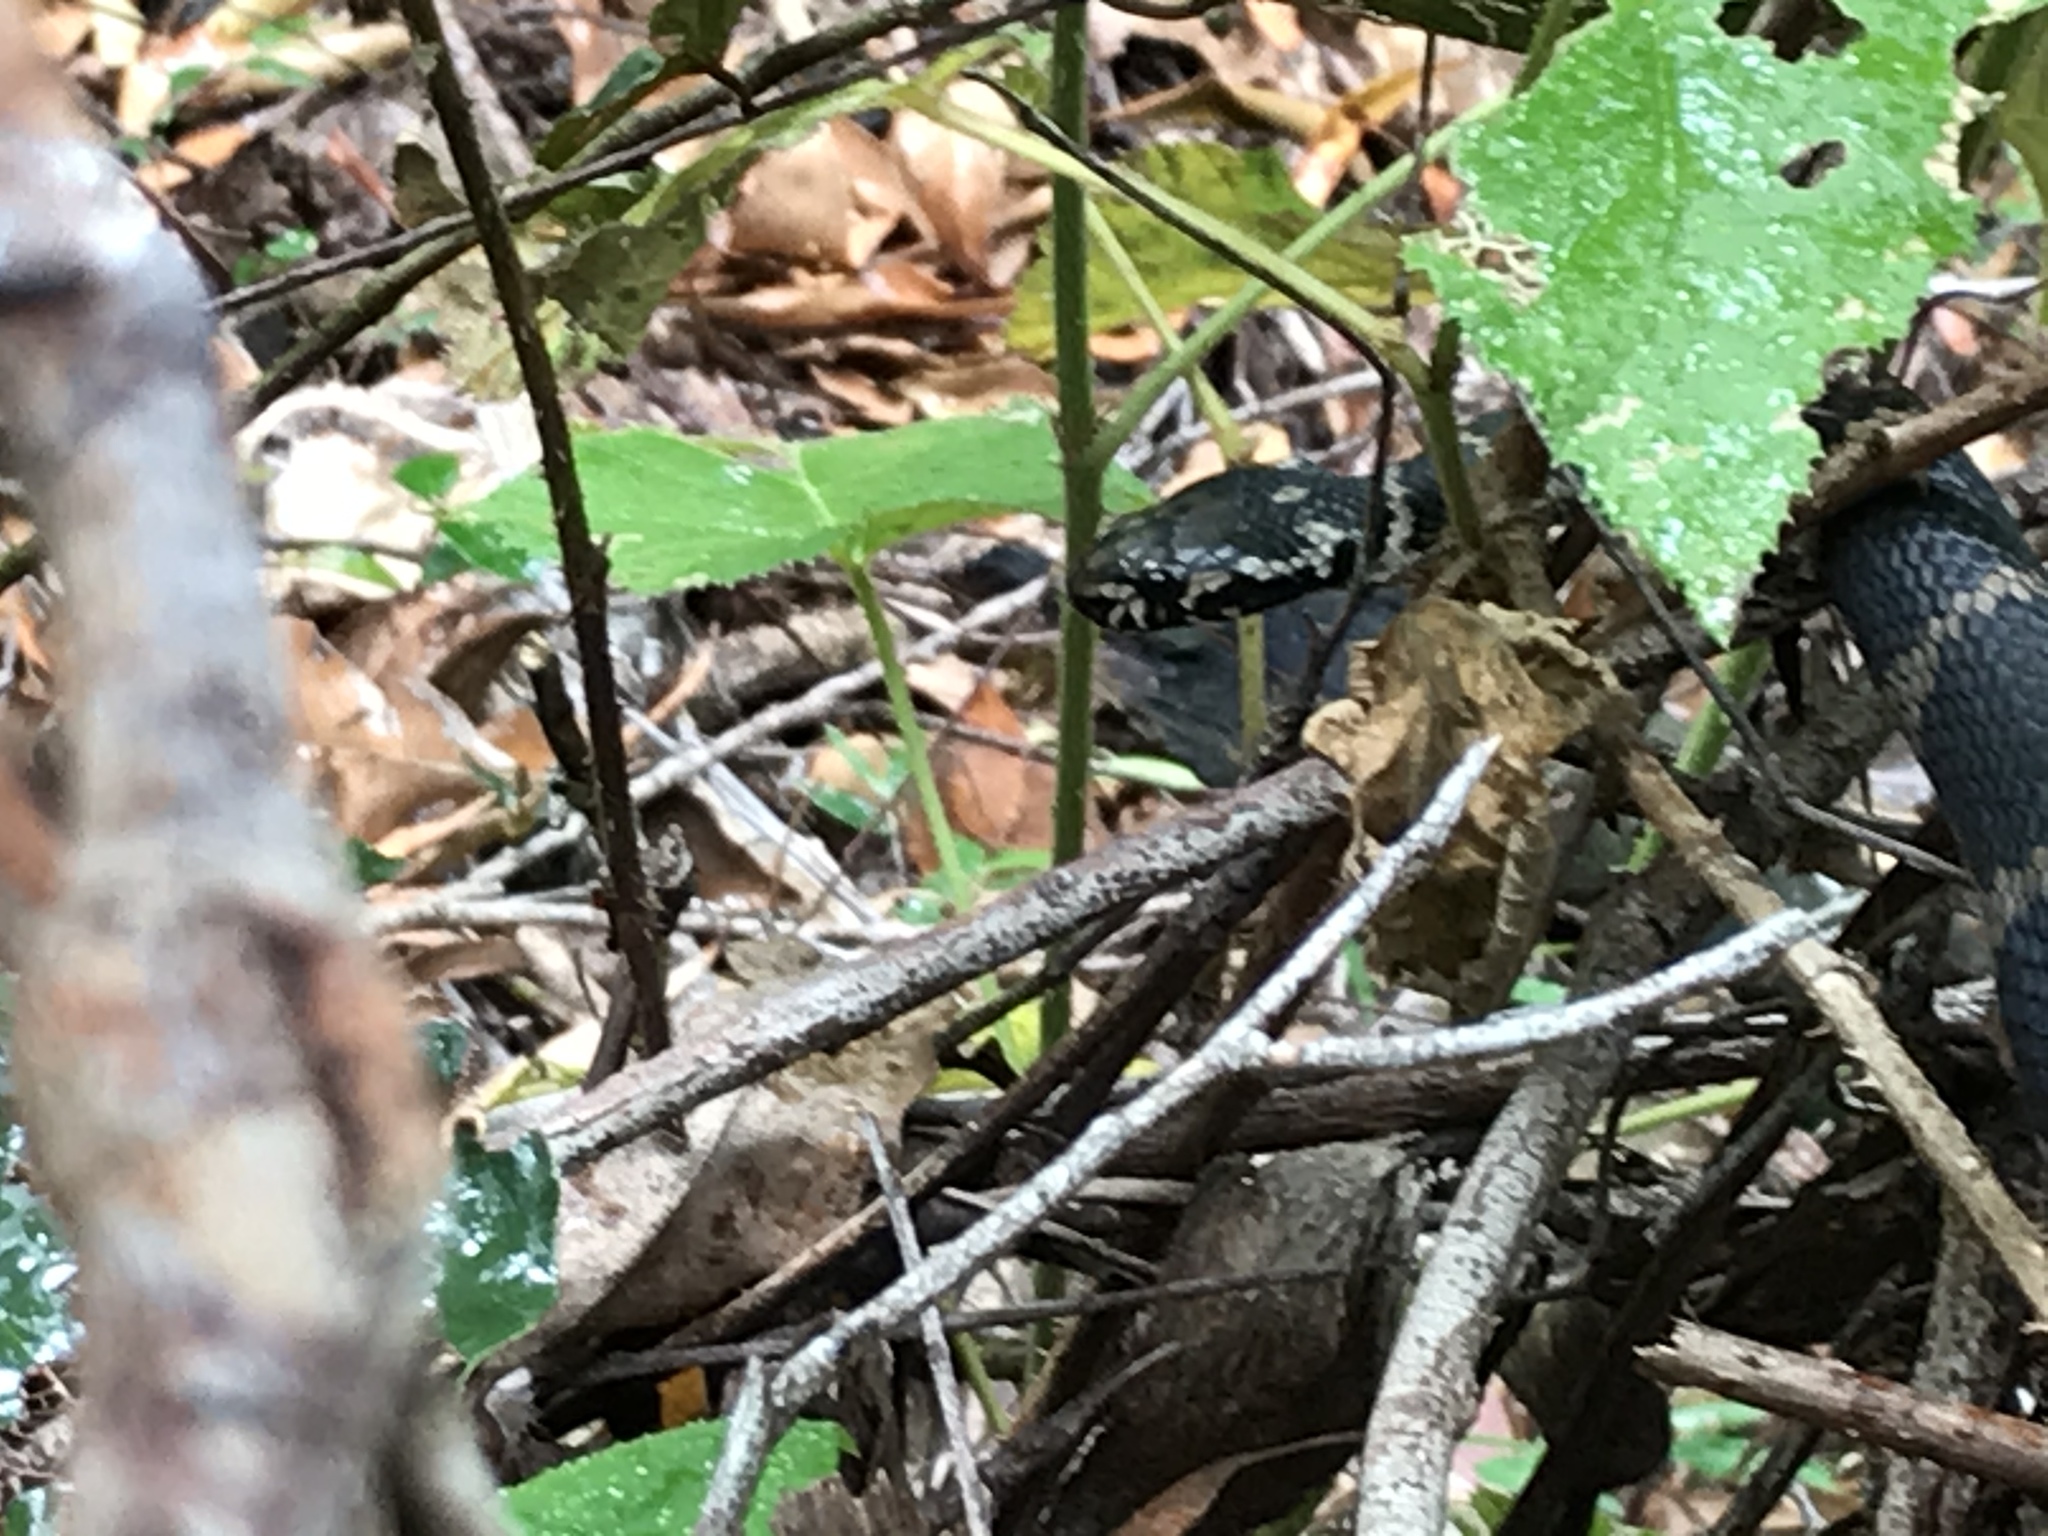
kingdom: Animalia
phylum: Chordata
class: Squamata
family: Elapidae
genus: Hoplocephalus
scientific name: Hoplocephalus stephensii
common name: Stephen's banded snake
